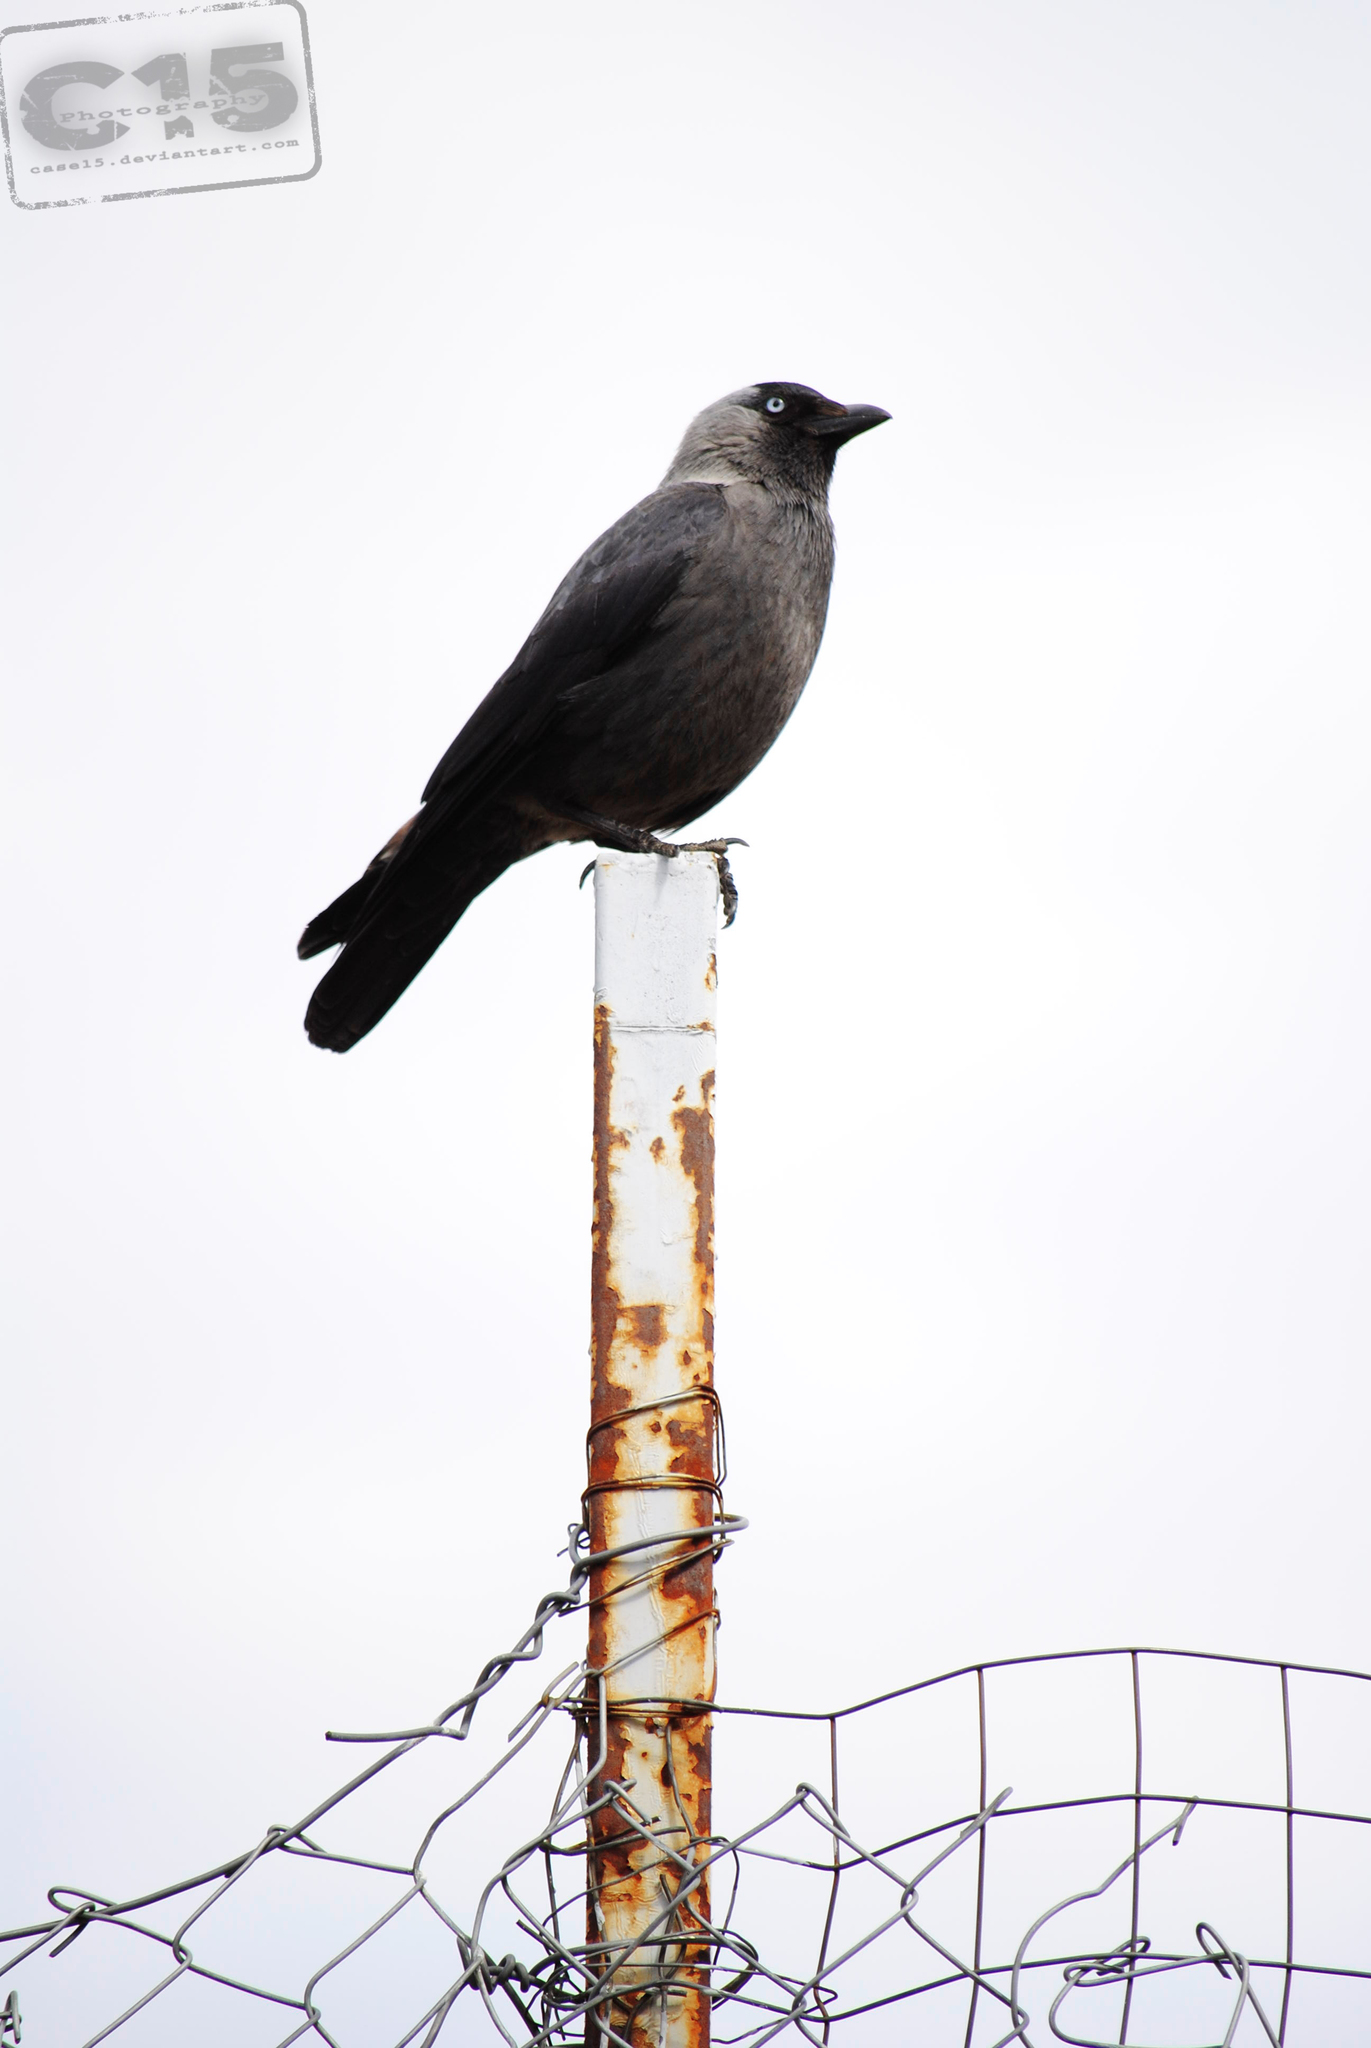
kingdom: Animalia
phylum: Chordata
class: Aves
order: Passeriformes
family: Corvidae
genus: Coloeus
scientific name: Coloeus monedula
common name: Western jackdaw
